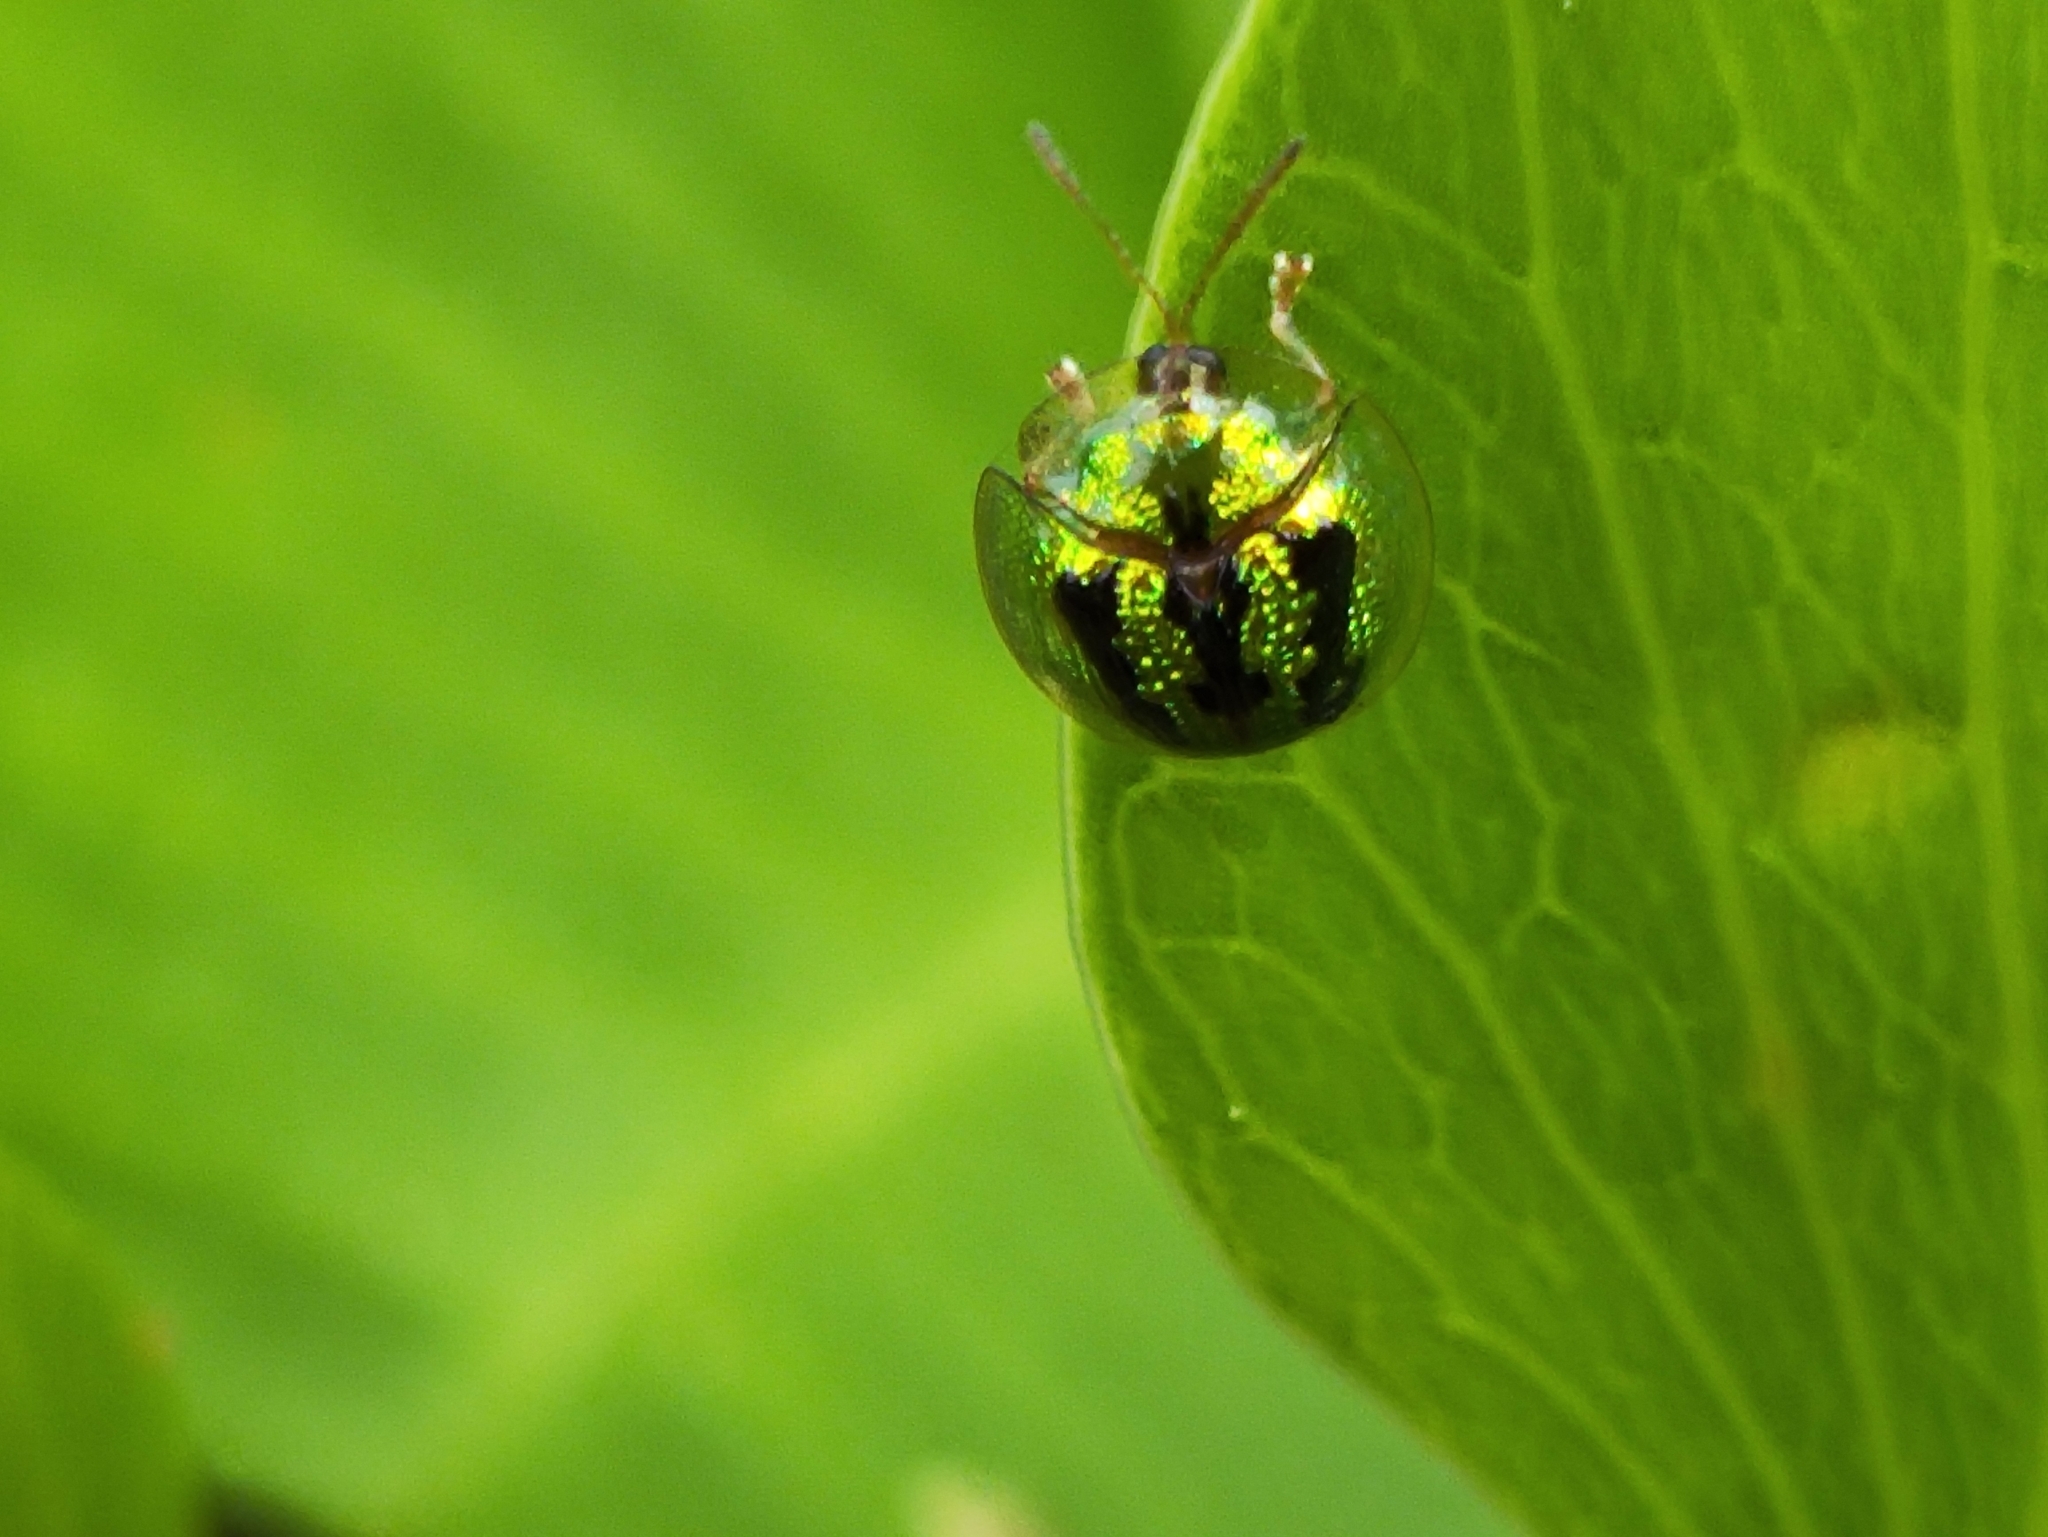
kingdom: Animalia
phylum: Arthropoda
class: Insecta
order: Coleoptera
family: Chrysomelidae
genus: Cassida
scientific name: Cassida circumdata
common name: Tortoise beetle
